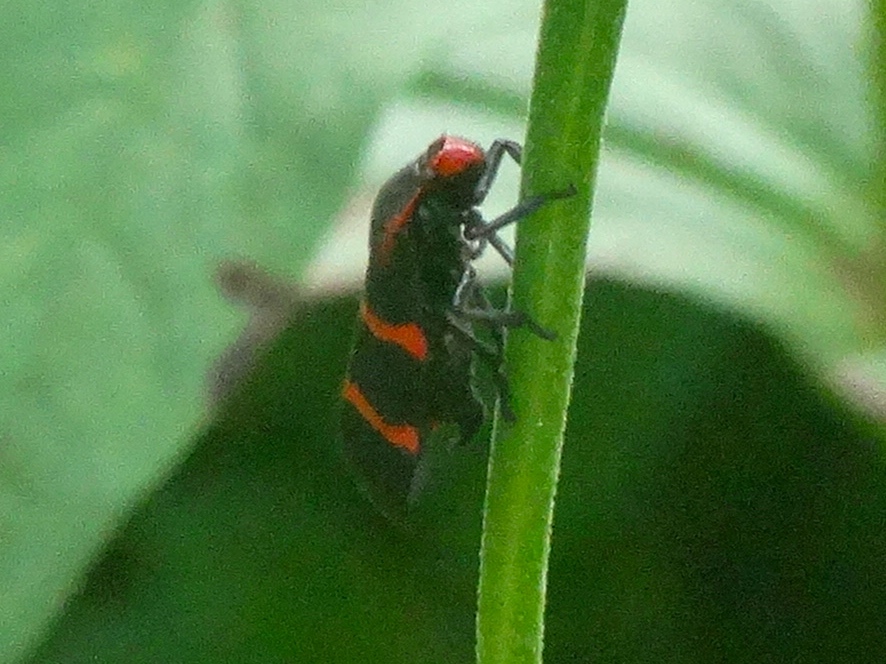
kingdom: Animalia
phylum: Arthropoda
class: Insecta
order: Hemiptera
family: Cercopidae
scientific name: Cercopidae
